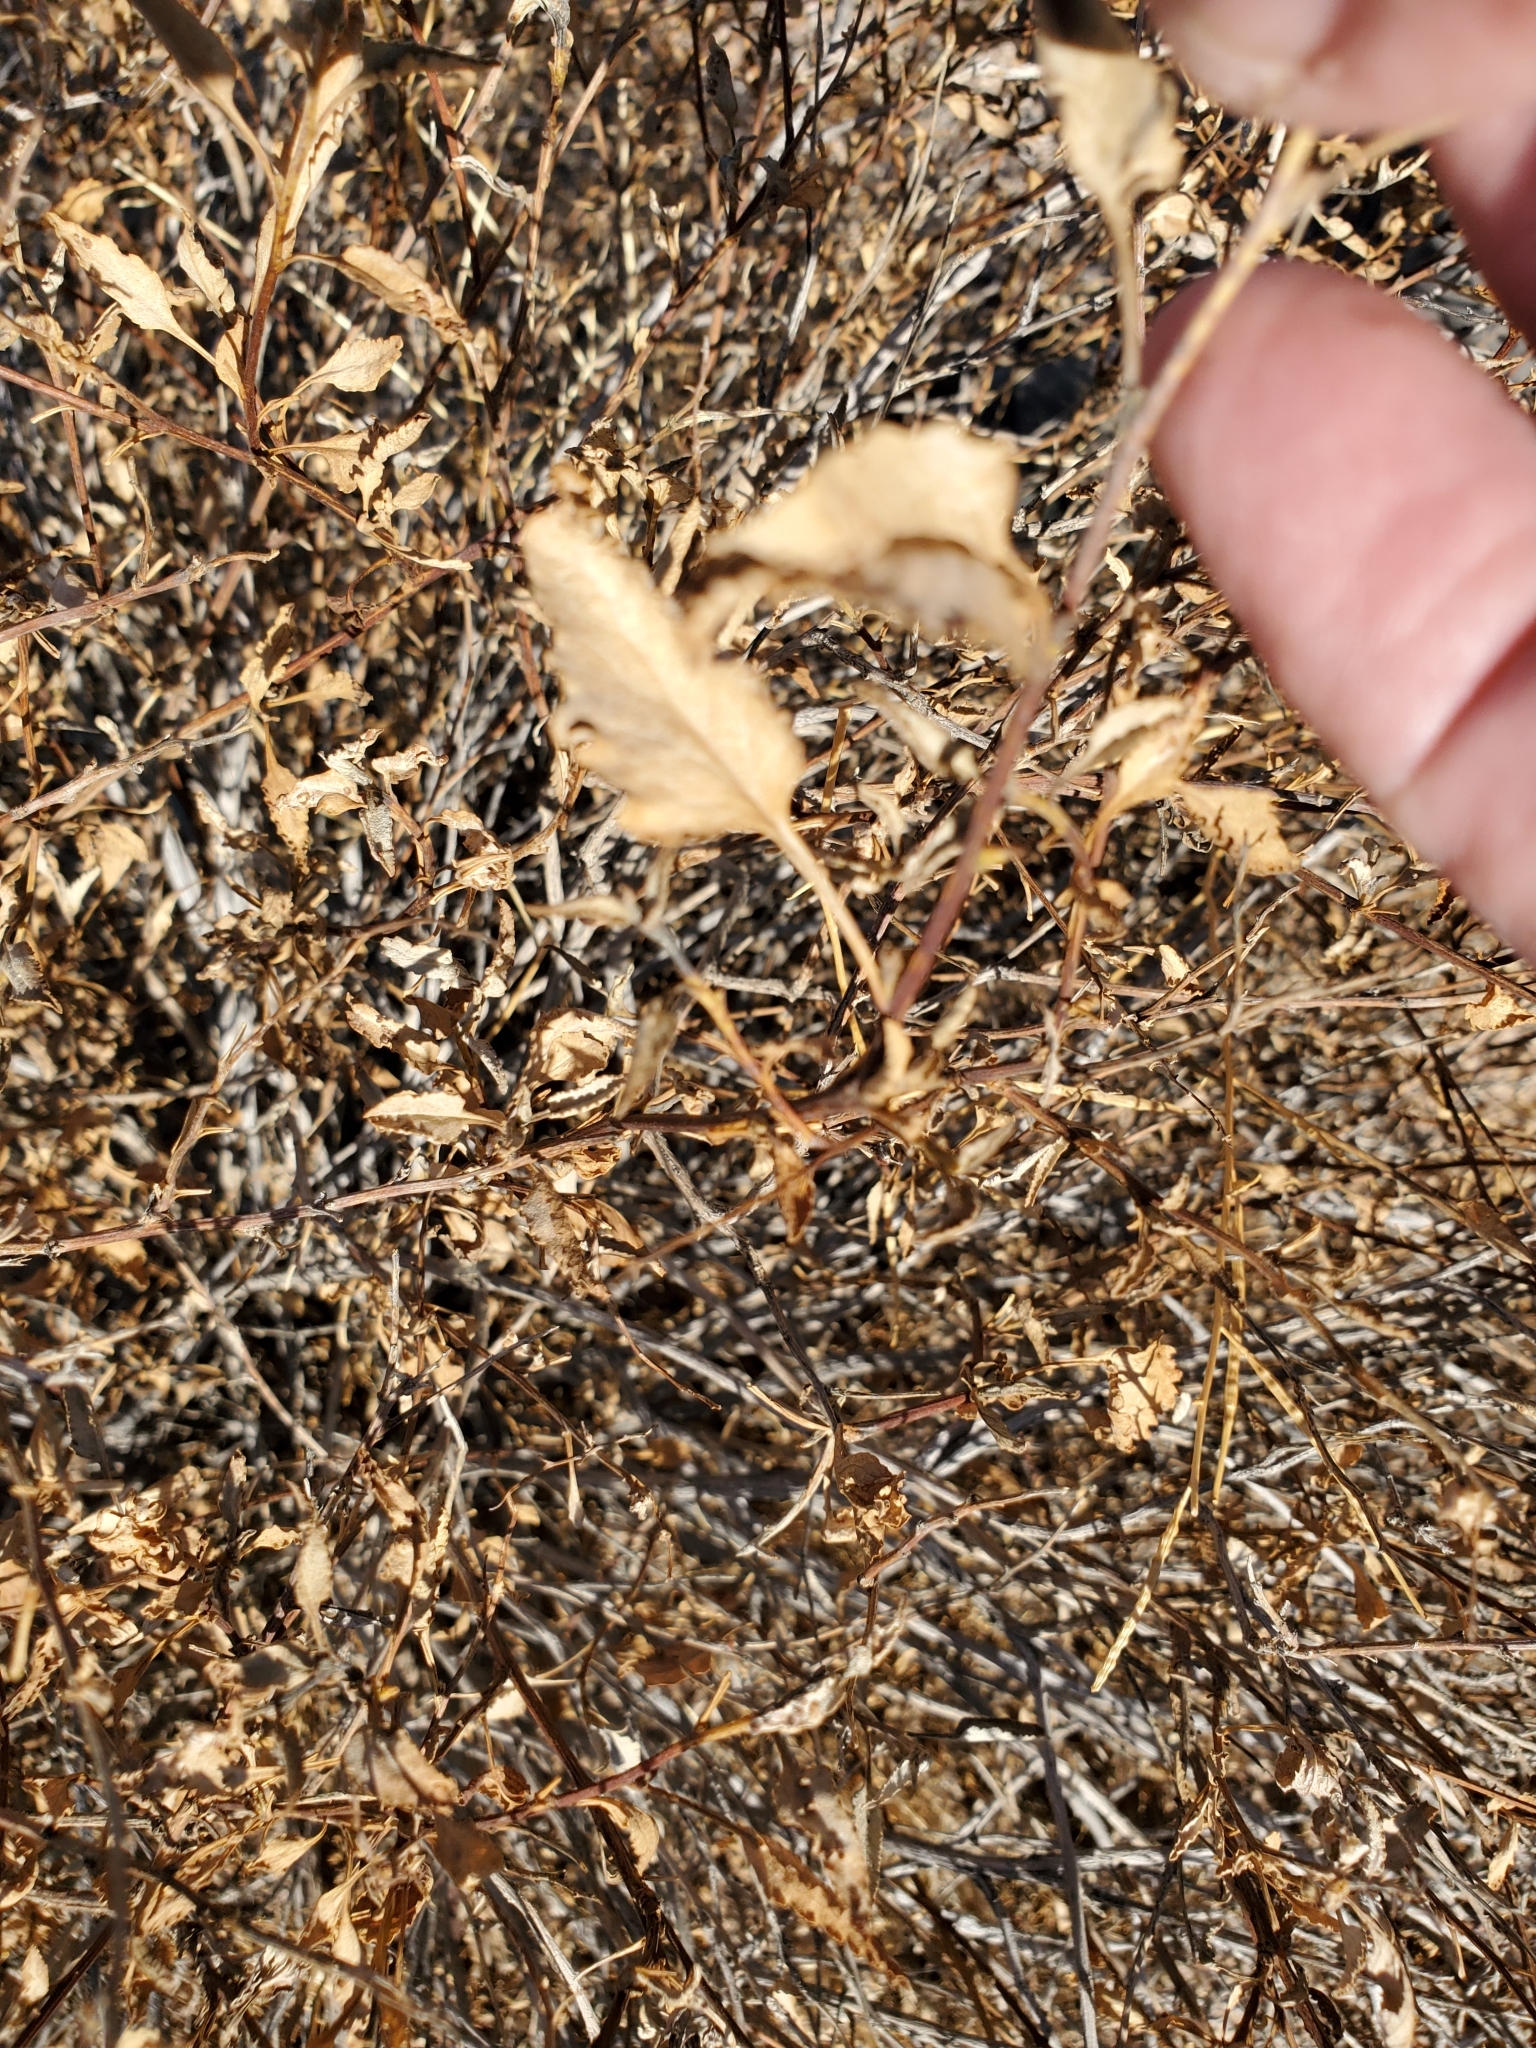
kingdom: Plantae
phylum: Tracheophyta
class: Magnoliopsida
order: Asterales
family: Asteraceae
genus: Ambrosia
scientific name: Ambrosia deltoidea
